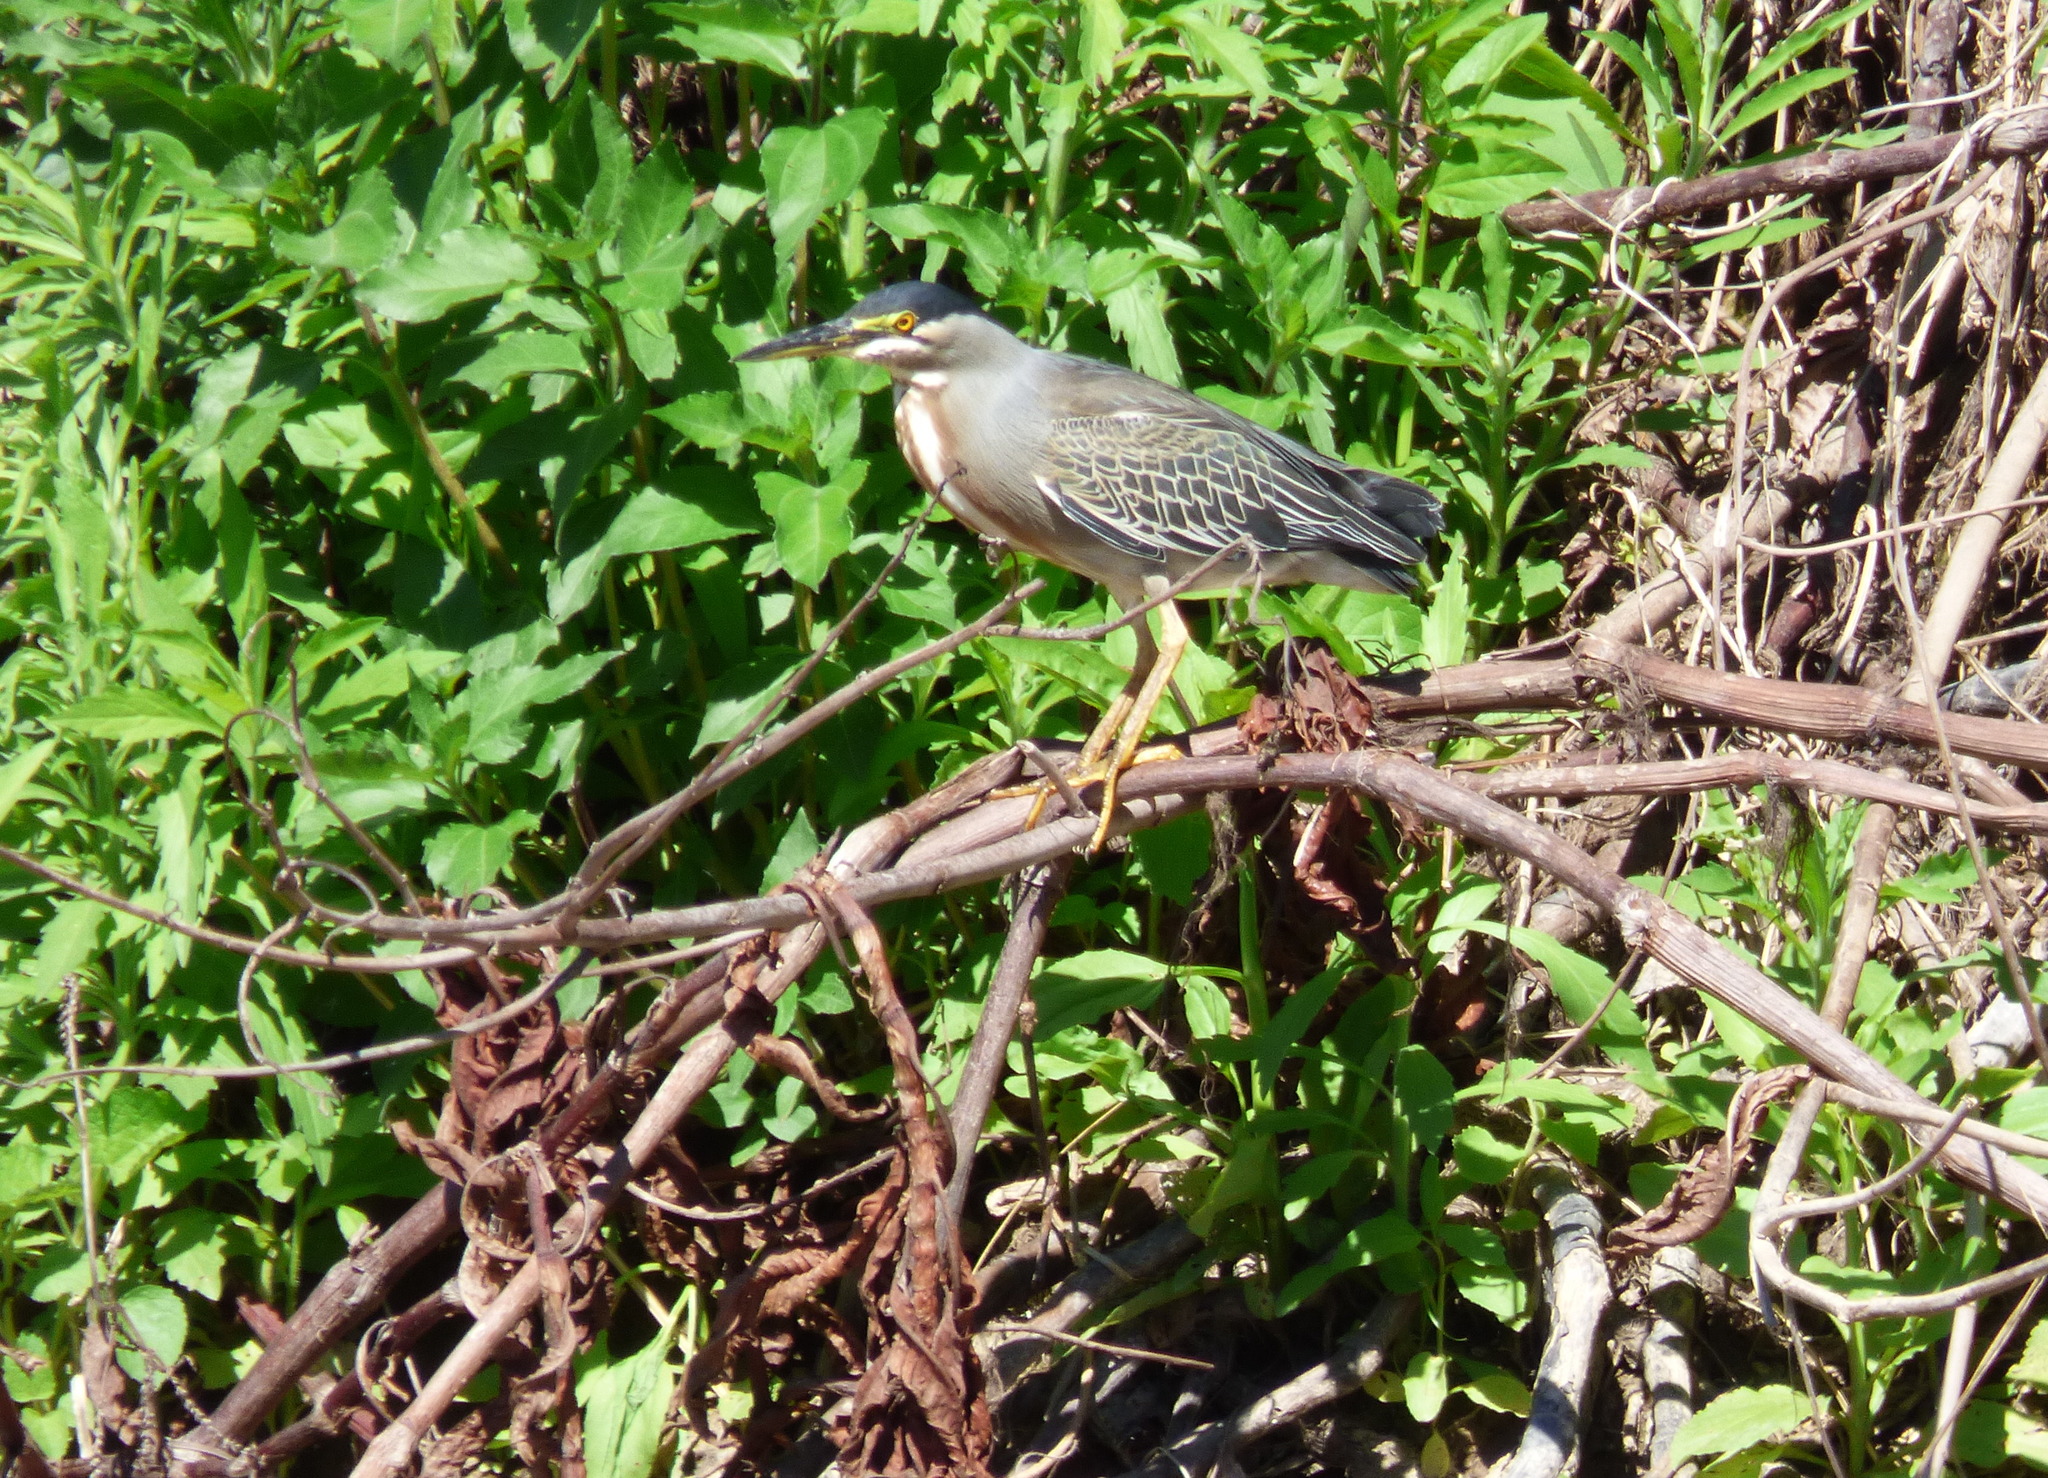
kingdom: Animalia
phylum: Chordata
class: Aves
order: Pelecaniformes
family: Ardeidae
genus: Butorides
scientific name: Butorides striata
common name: Striated heron
